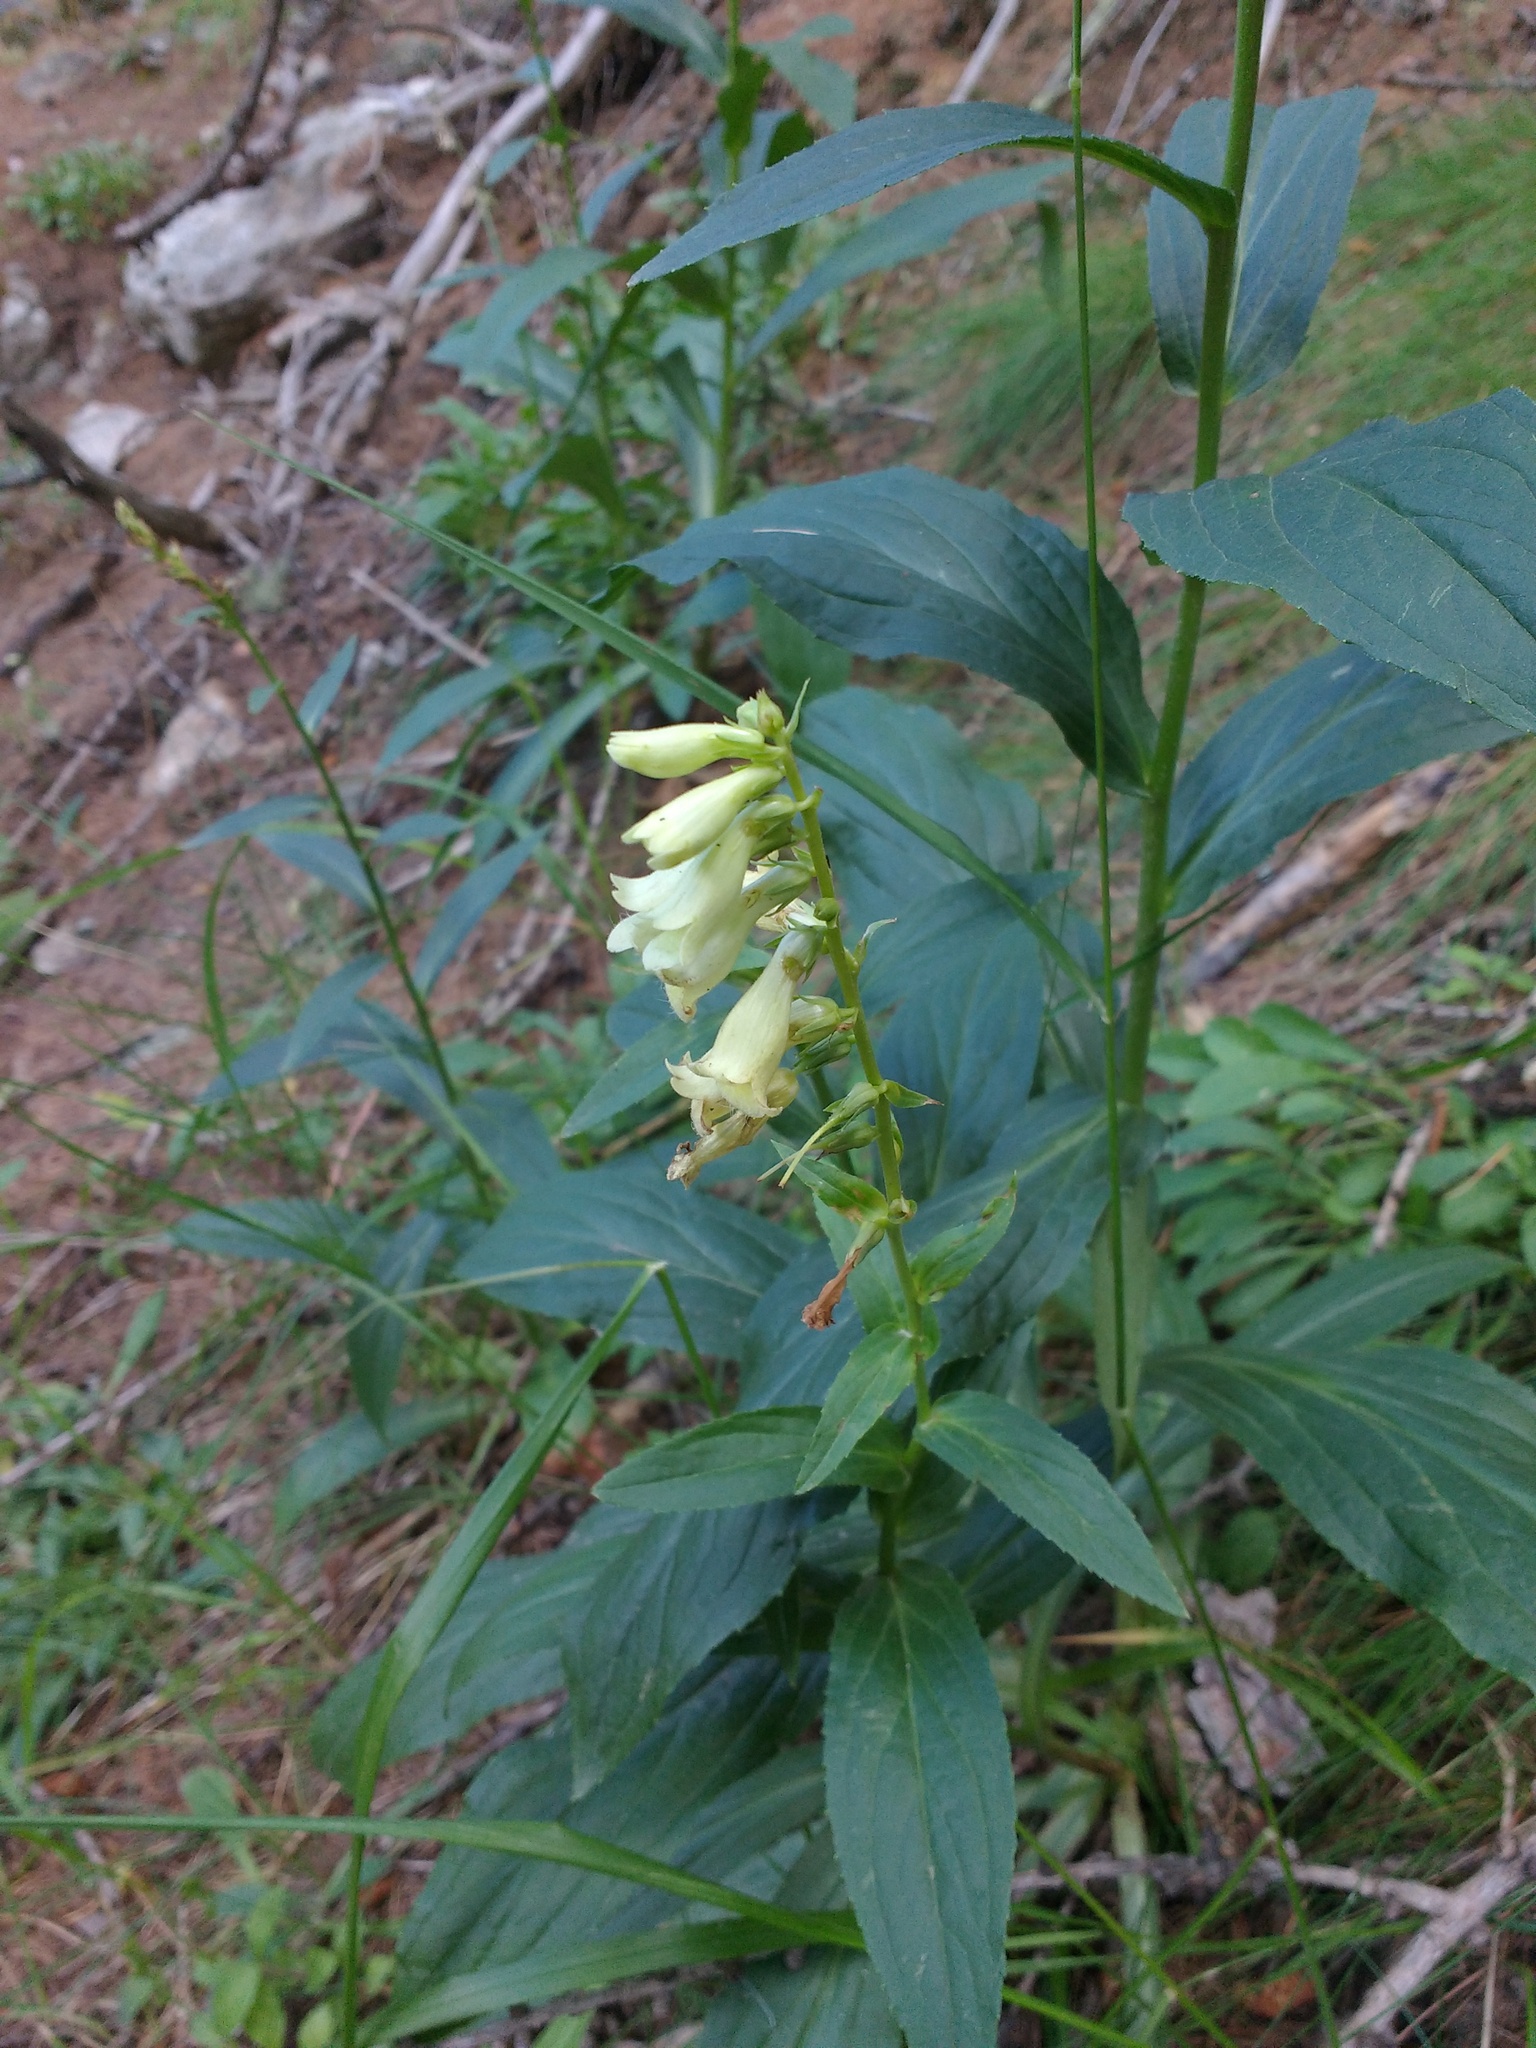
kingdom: Plantae
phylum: Tracheophyta
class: Magnoliopsida
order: Lamiales
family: Plantaginaceae
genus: Digitalis
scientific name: Digitalis lutea
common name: Straw foxglove
